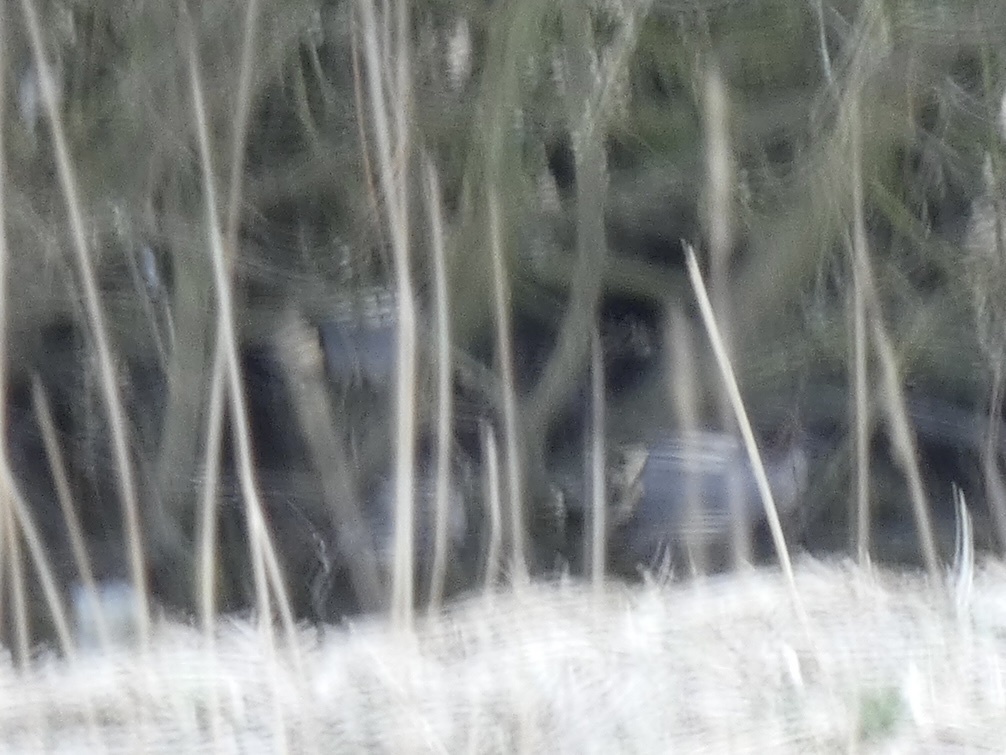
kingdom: Animalia
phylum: Chordata
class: Aves
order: Anseriformes
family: Anatidae
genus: Anas
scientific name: Anas crecca
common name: Eurasian teal
